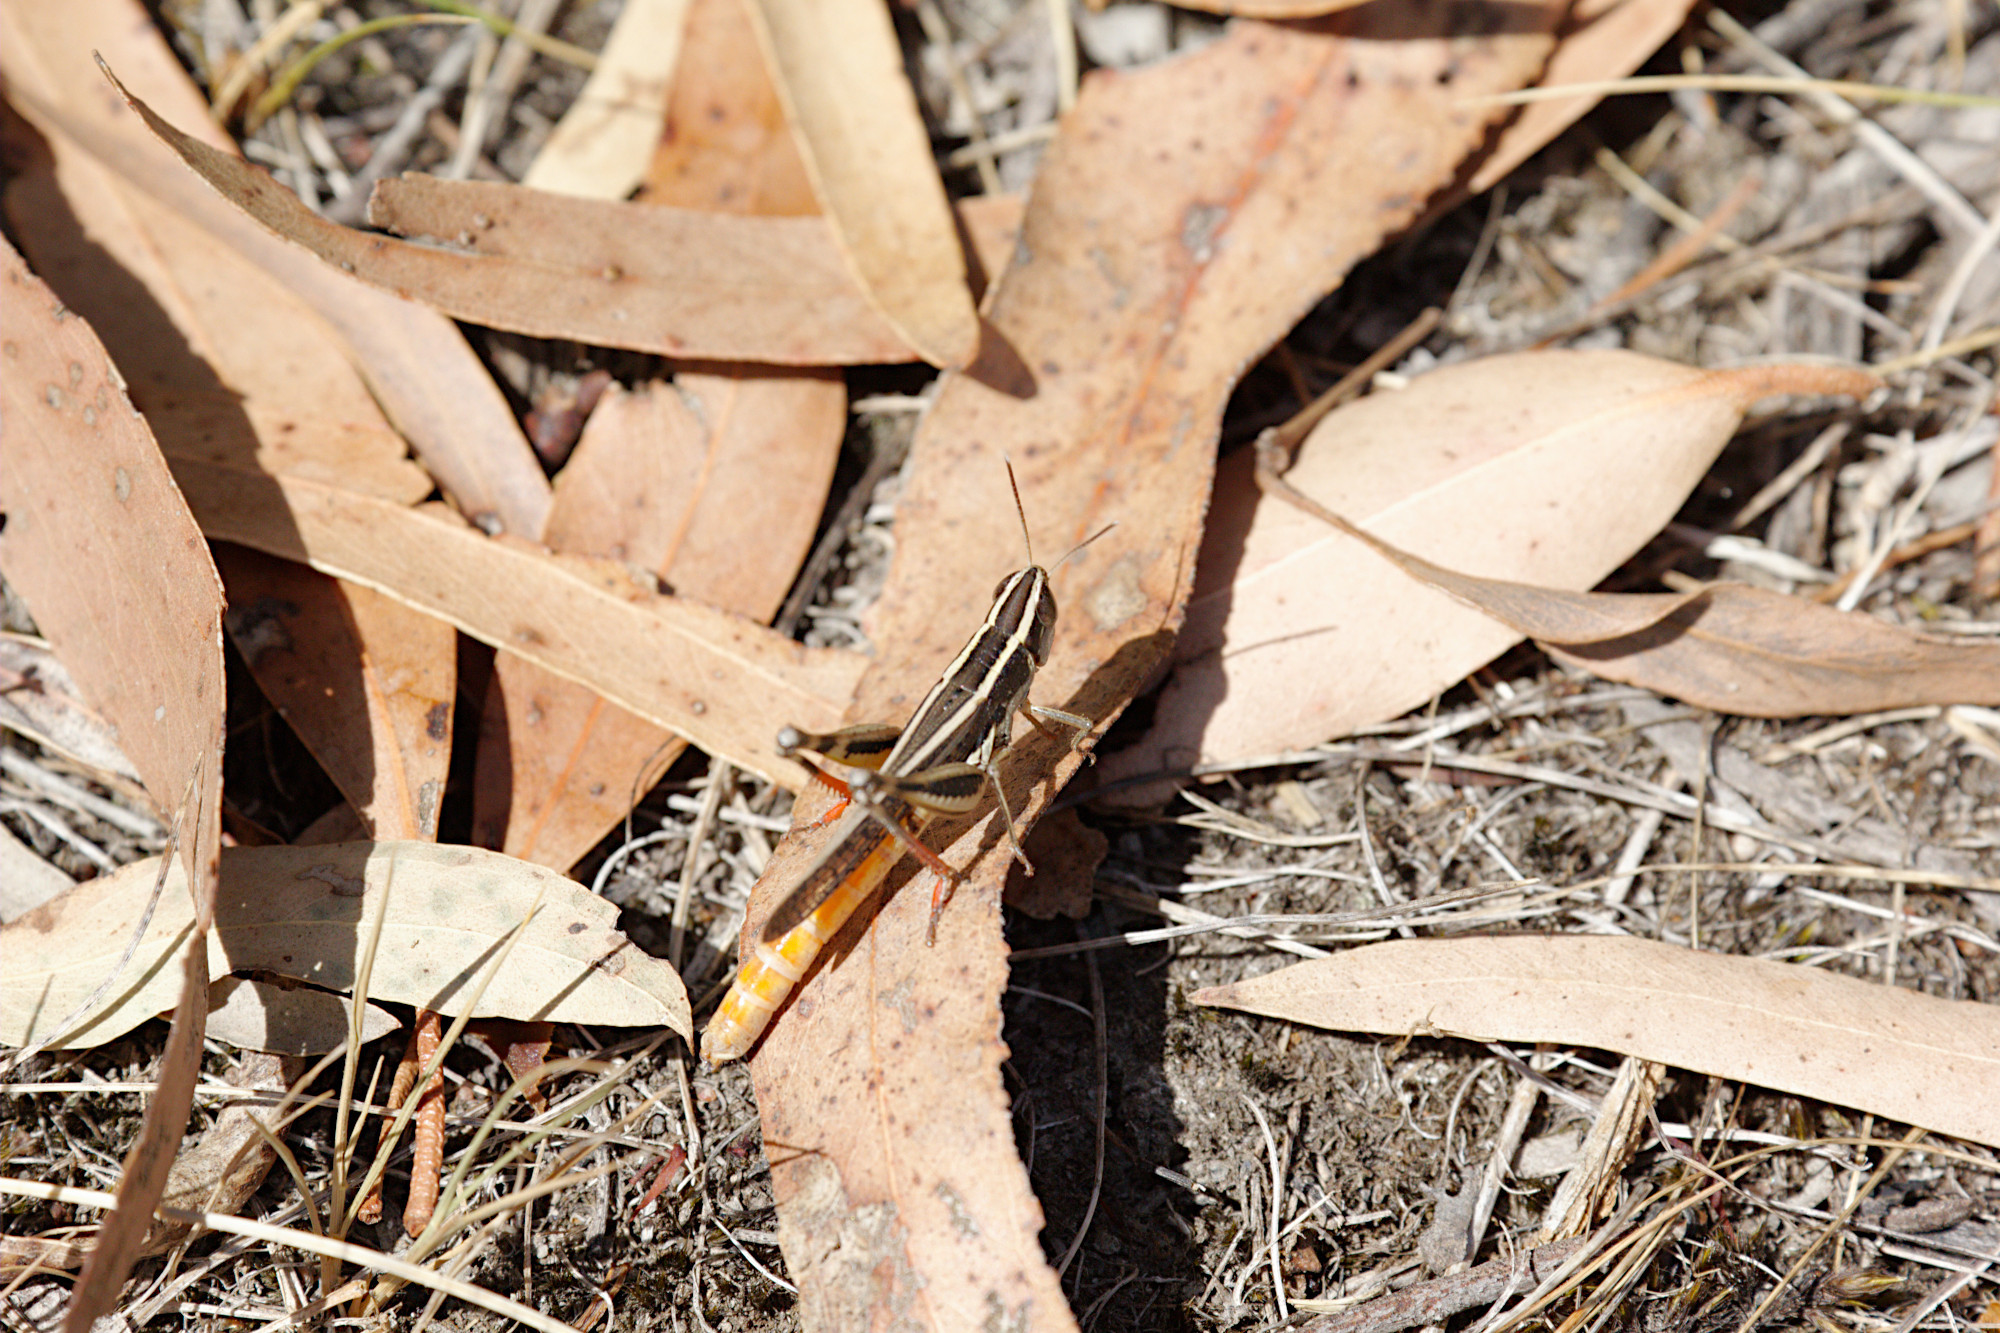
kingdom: Animalia
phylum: Arthropoda
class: Insecta
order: Orthoptera
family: Acrididae
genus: Macrotona
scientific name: Macrotona securiformis
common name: Inland macrotona
